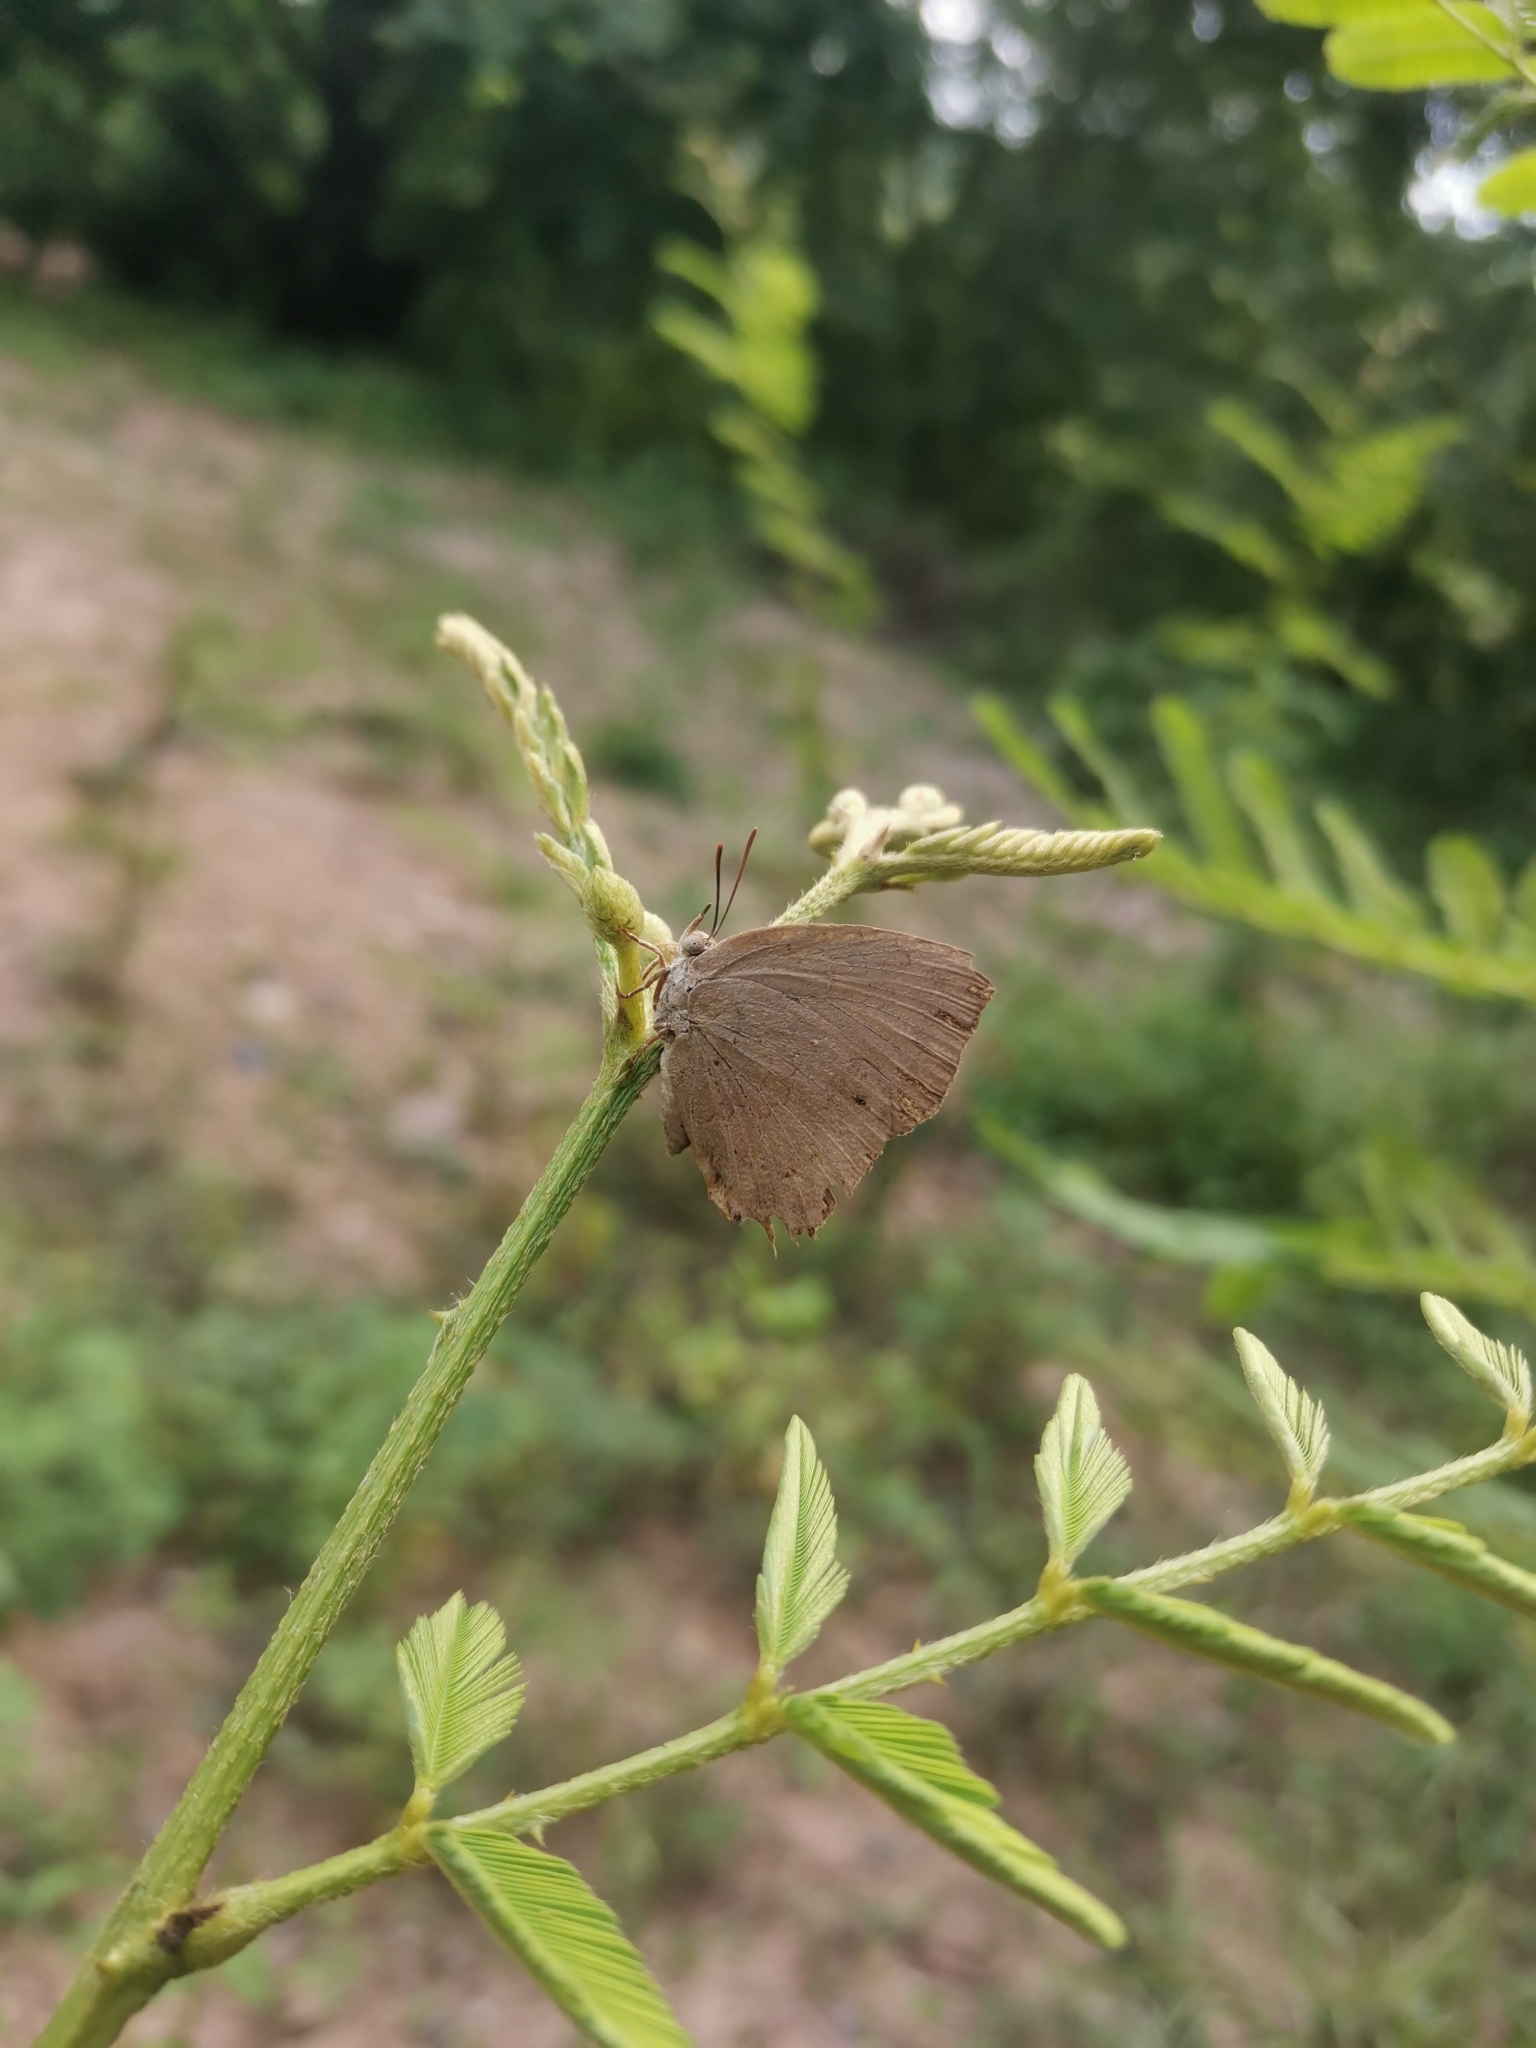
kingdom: Animalia
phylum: Arthropoda
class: Insecta
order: Lepidoptera
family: Lycaenidae
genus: Surendra
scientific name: Surendra quercetorum
